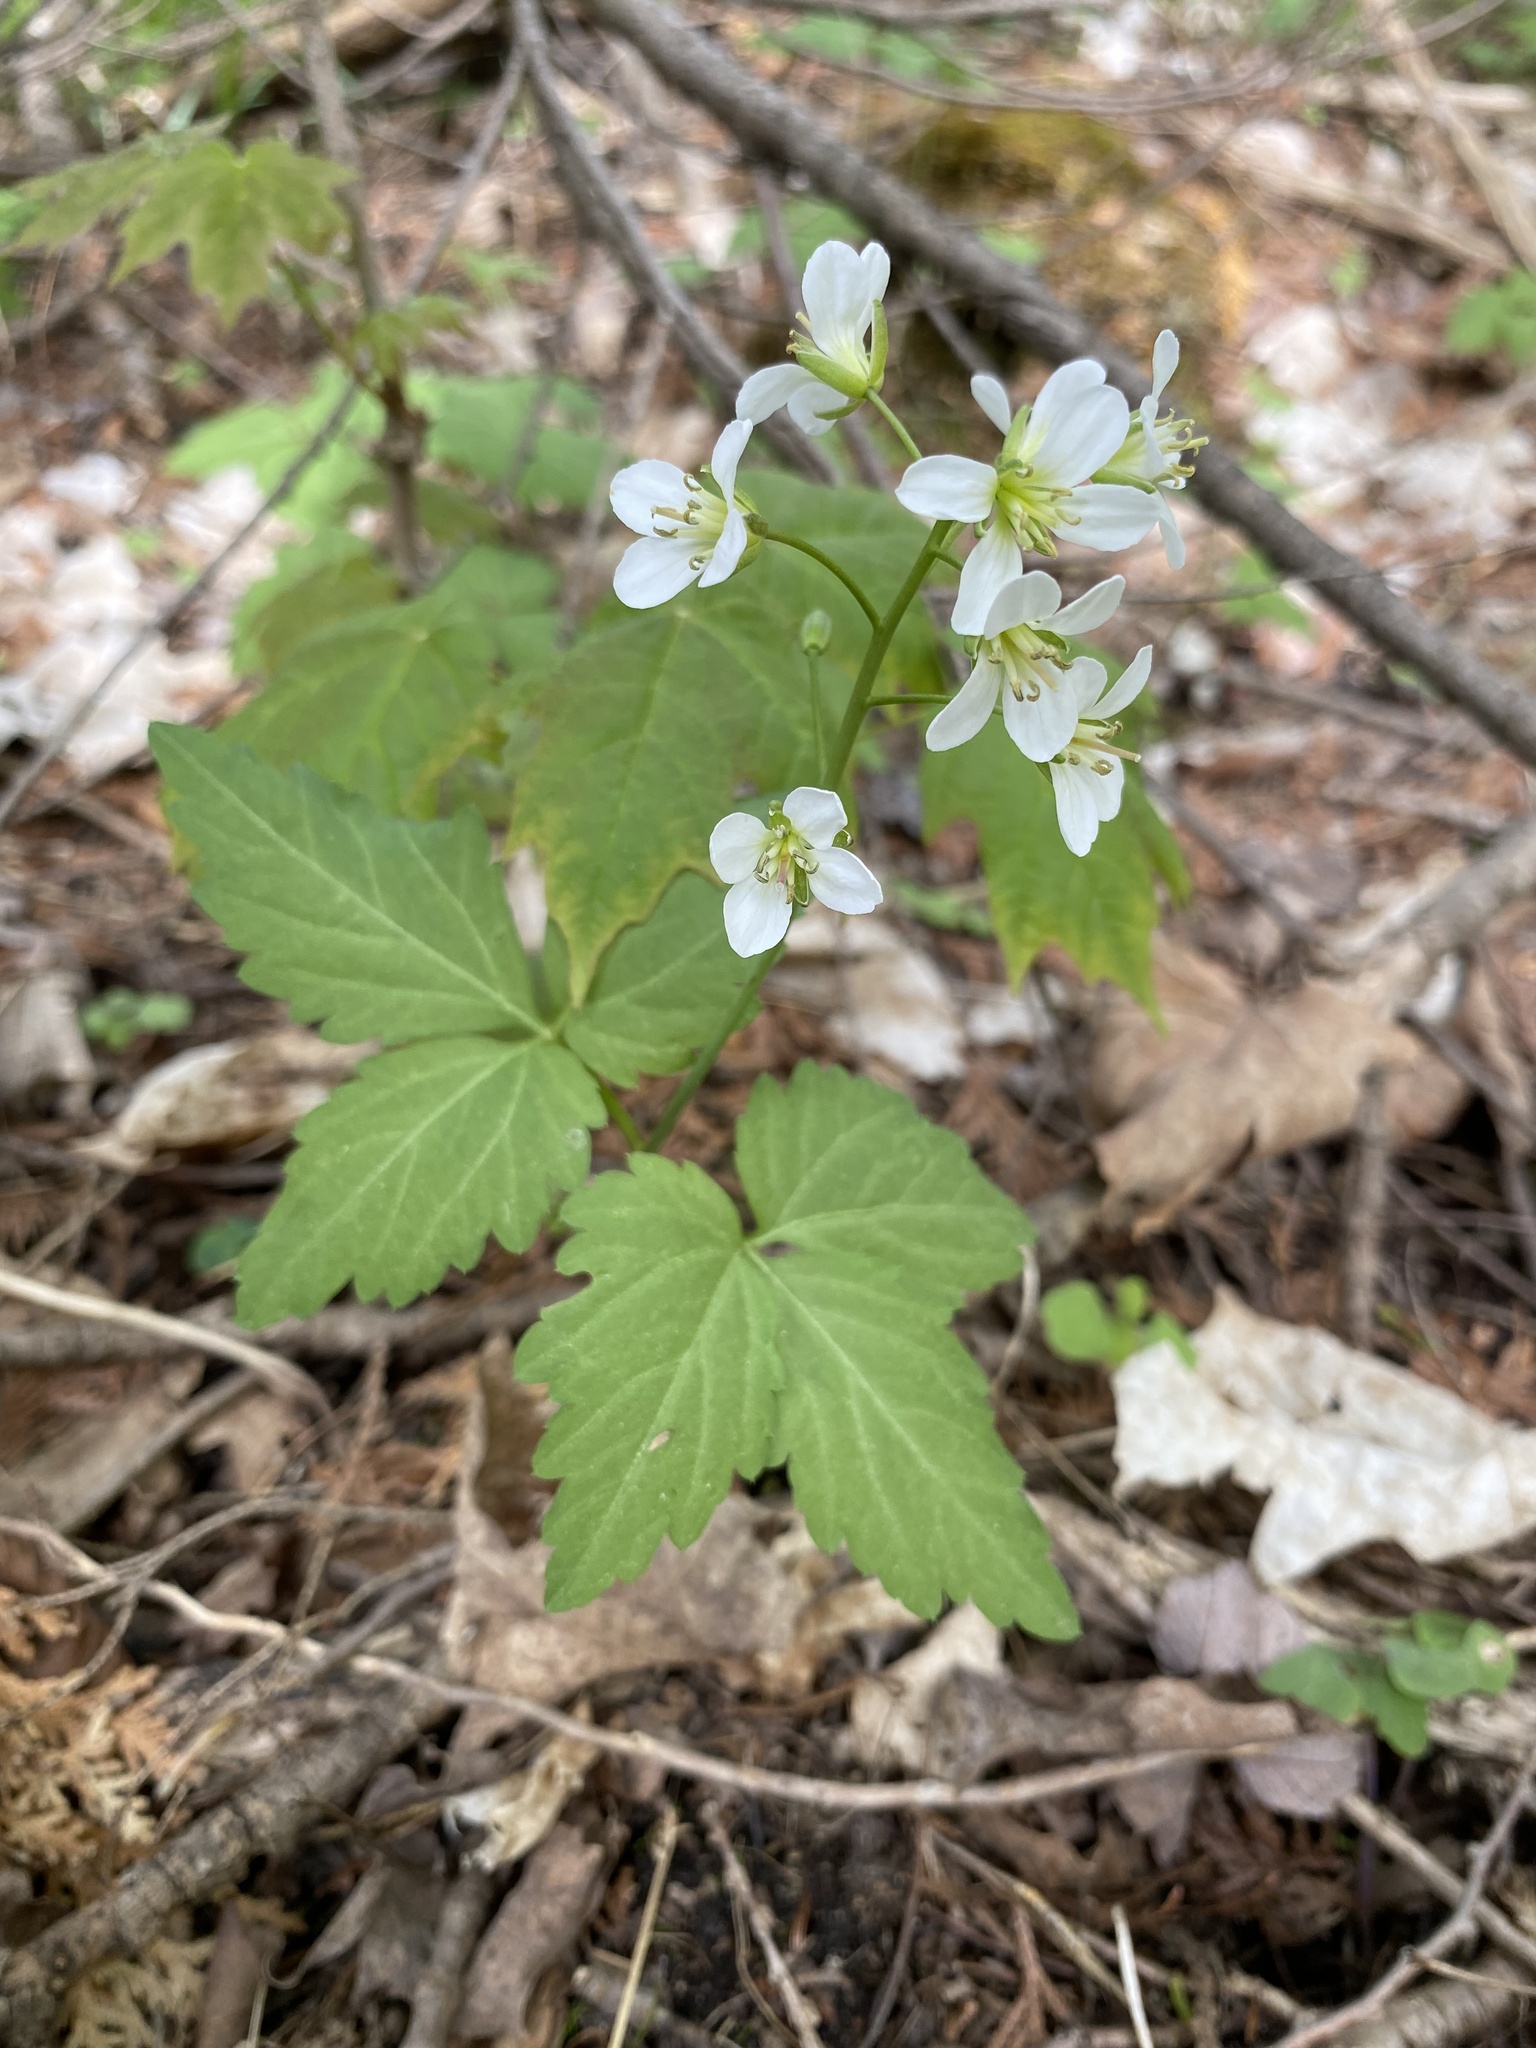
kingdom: Plantae
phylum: Tracheophyta
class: Magnoliopsida
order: Brassicales
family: Brassicaceae
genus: Cardamine
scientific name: Cardamine diphylla
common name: Broad-leaved toothwort
